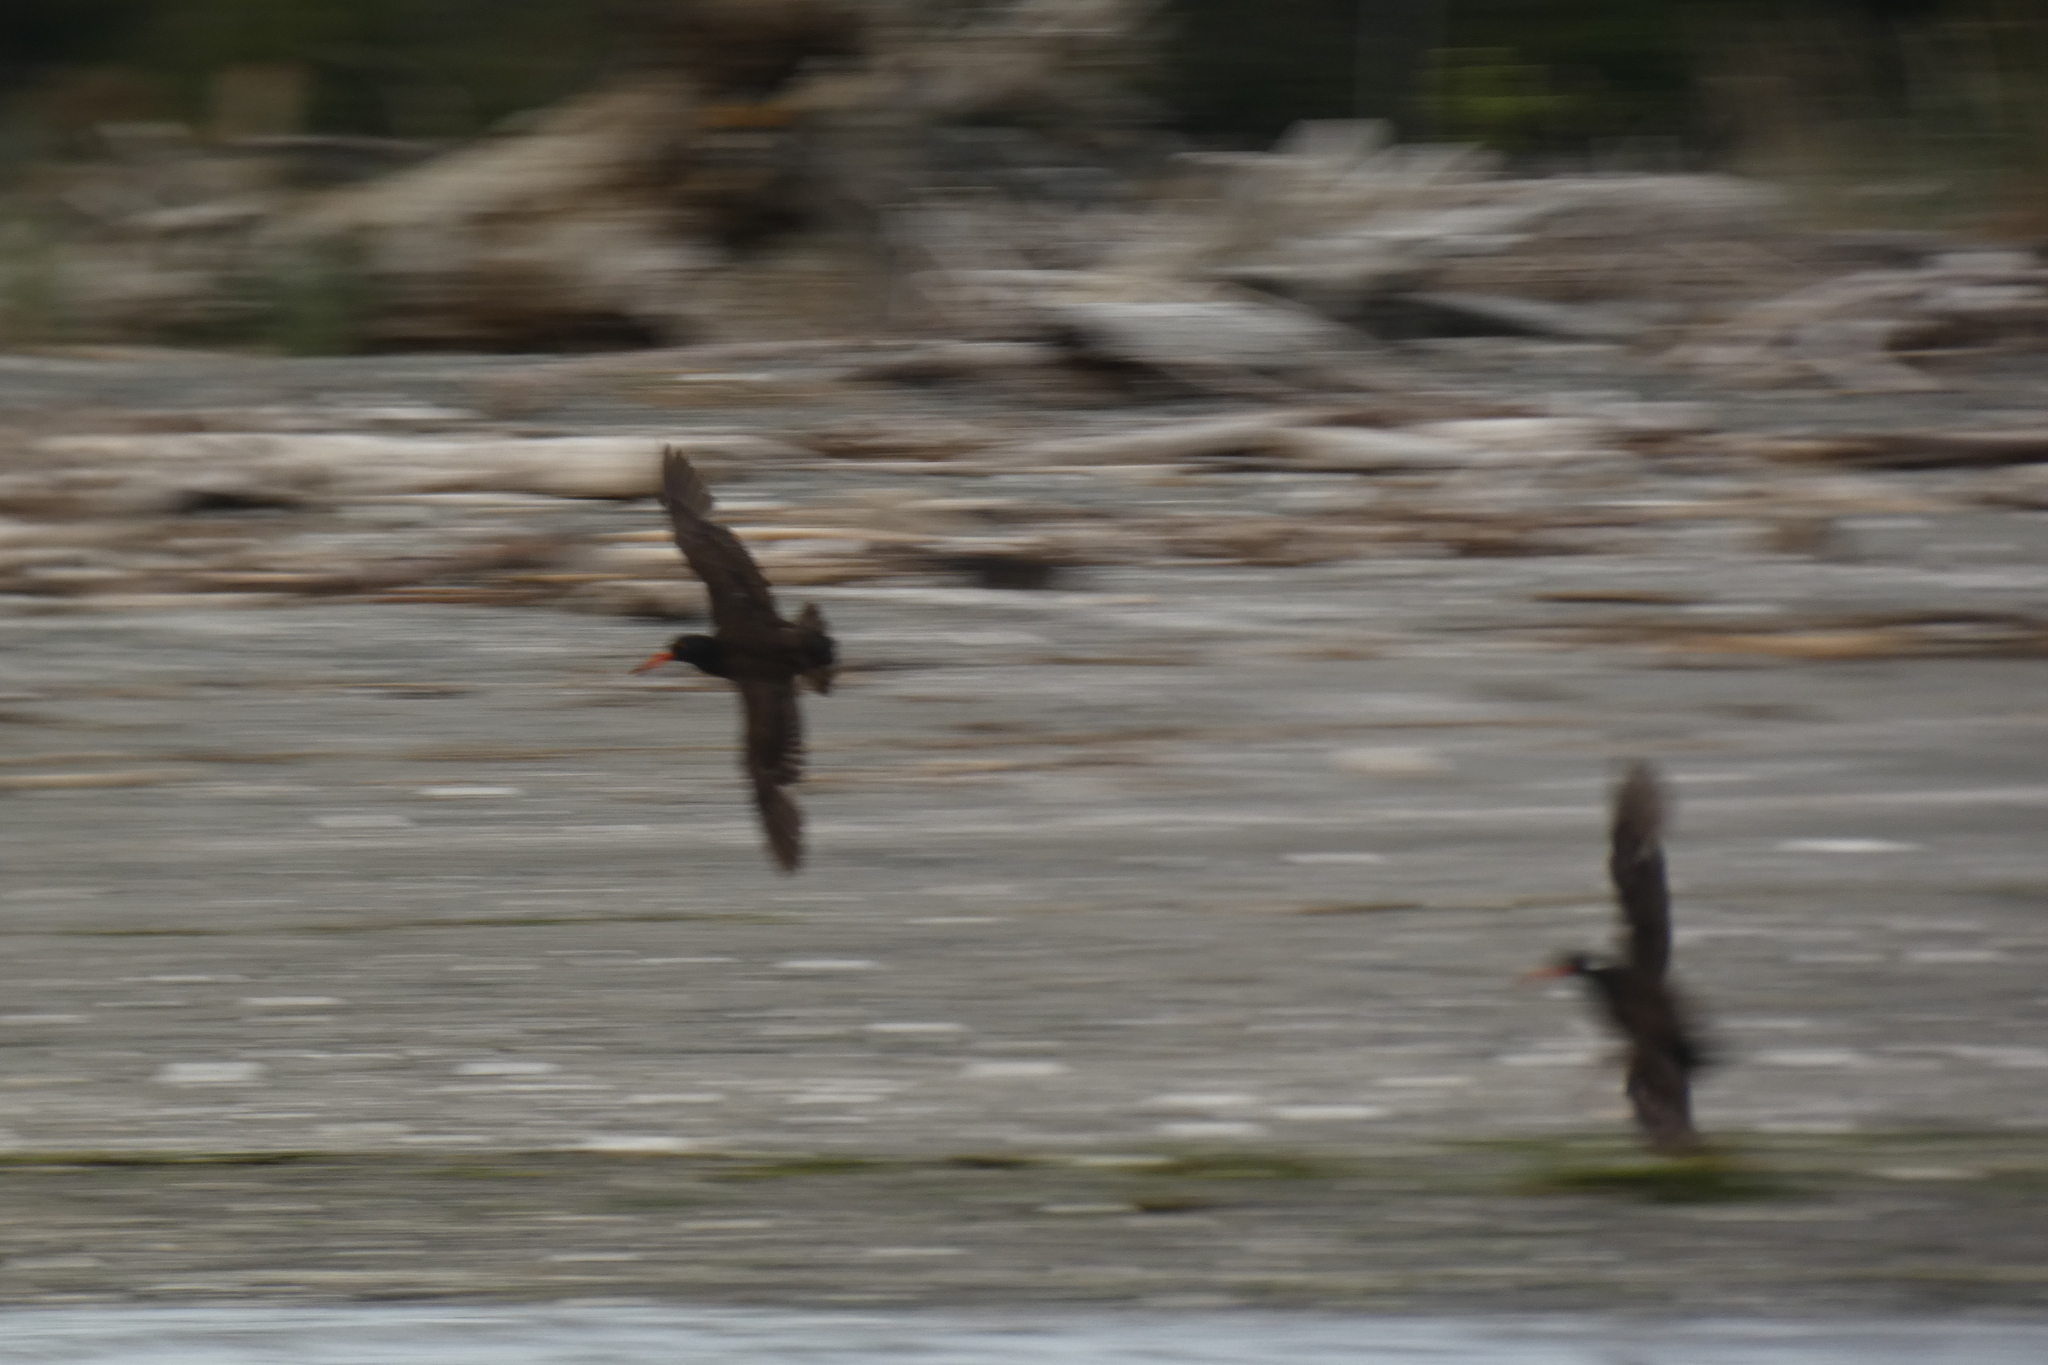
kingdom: Animalia
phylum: Chordata
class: Aves
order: Charadriiformes
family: Haematopodidae
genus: Haematopus
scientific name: Haematopus bachmani
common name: Black oystercatcher
